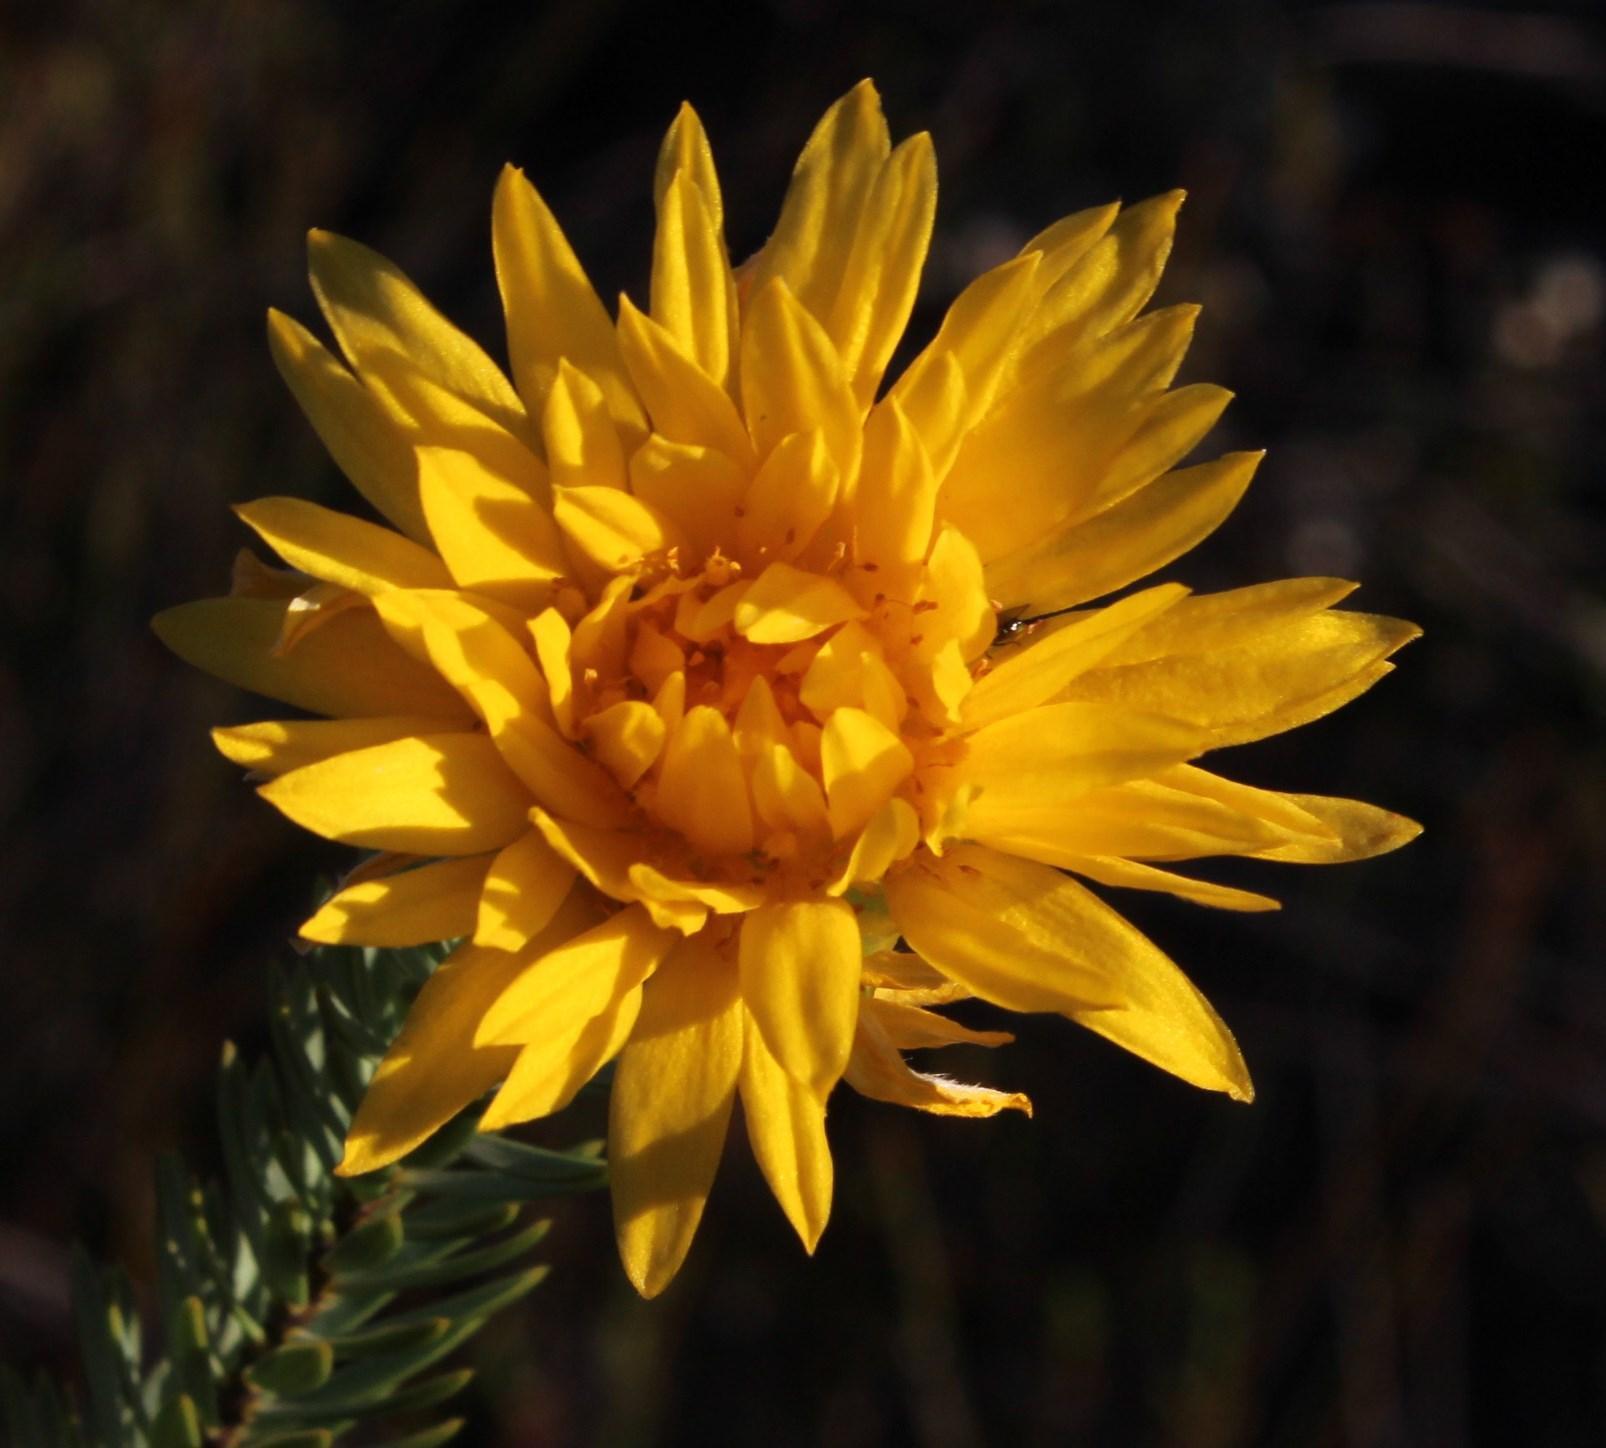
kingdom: Plantae
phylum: Tracheophyta
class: Magnoliopsida
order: Malvales
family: Thymelaeaceae
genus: Lachnaea
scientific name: Lachnaea aurea
